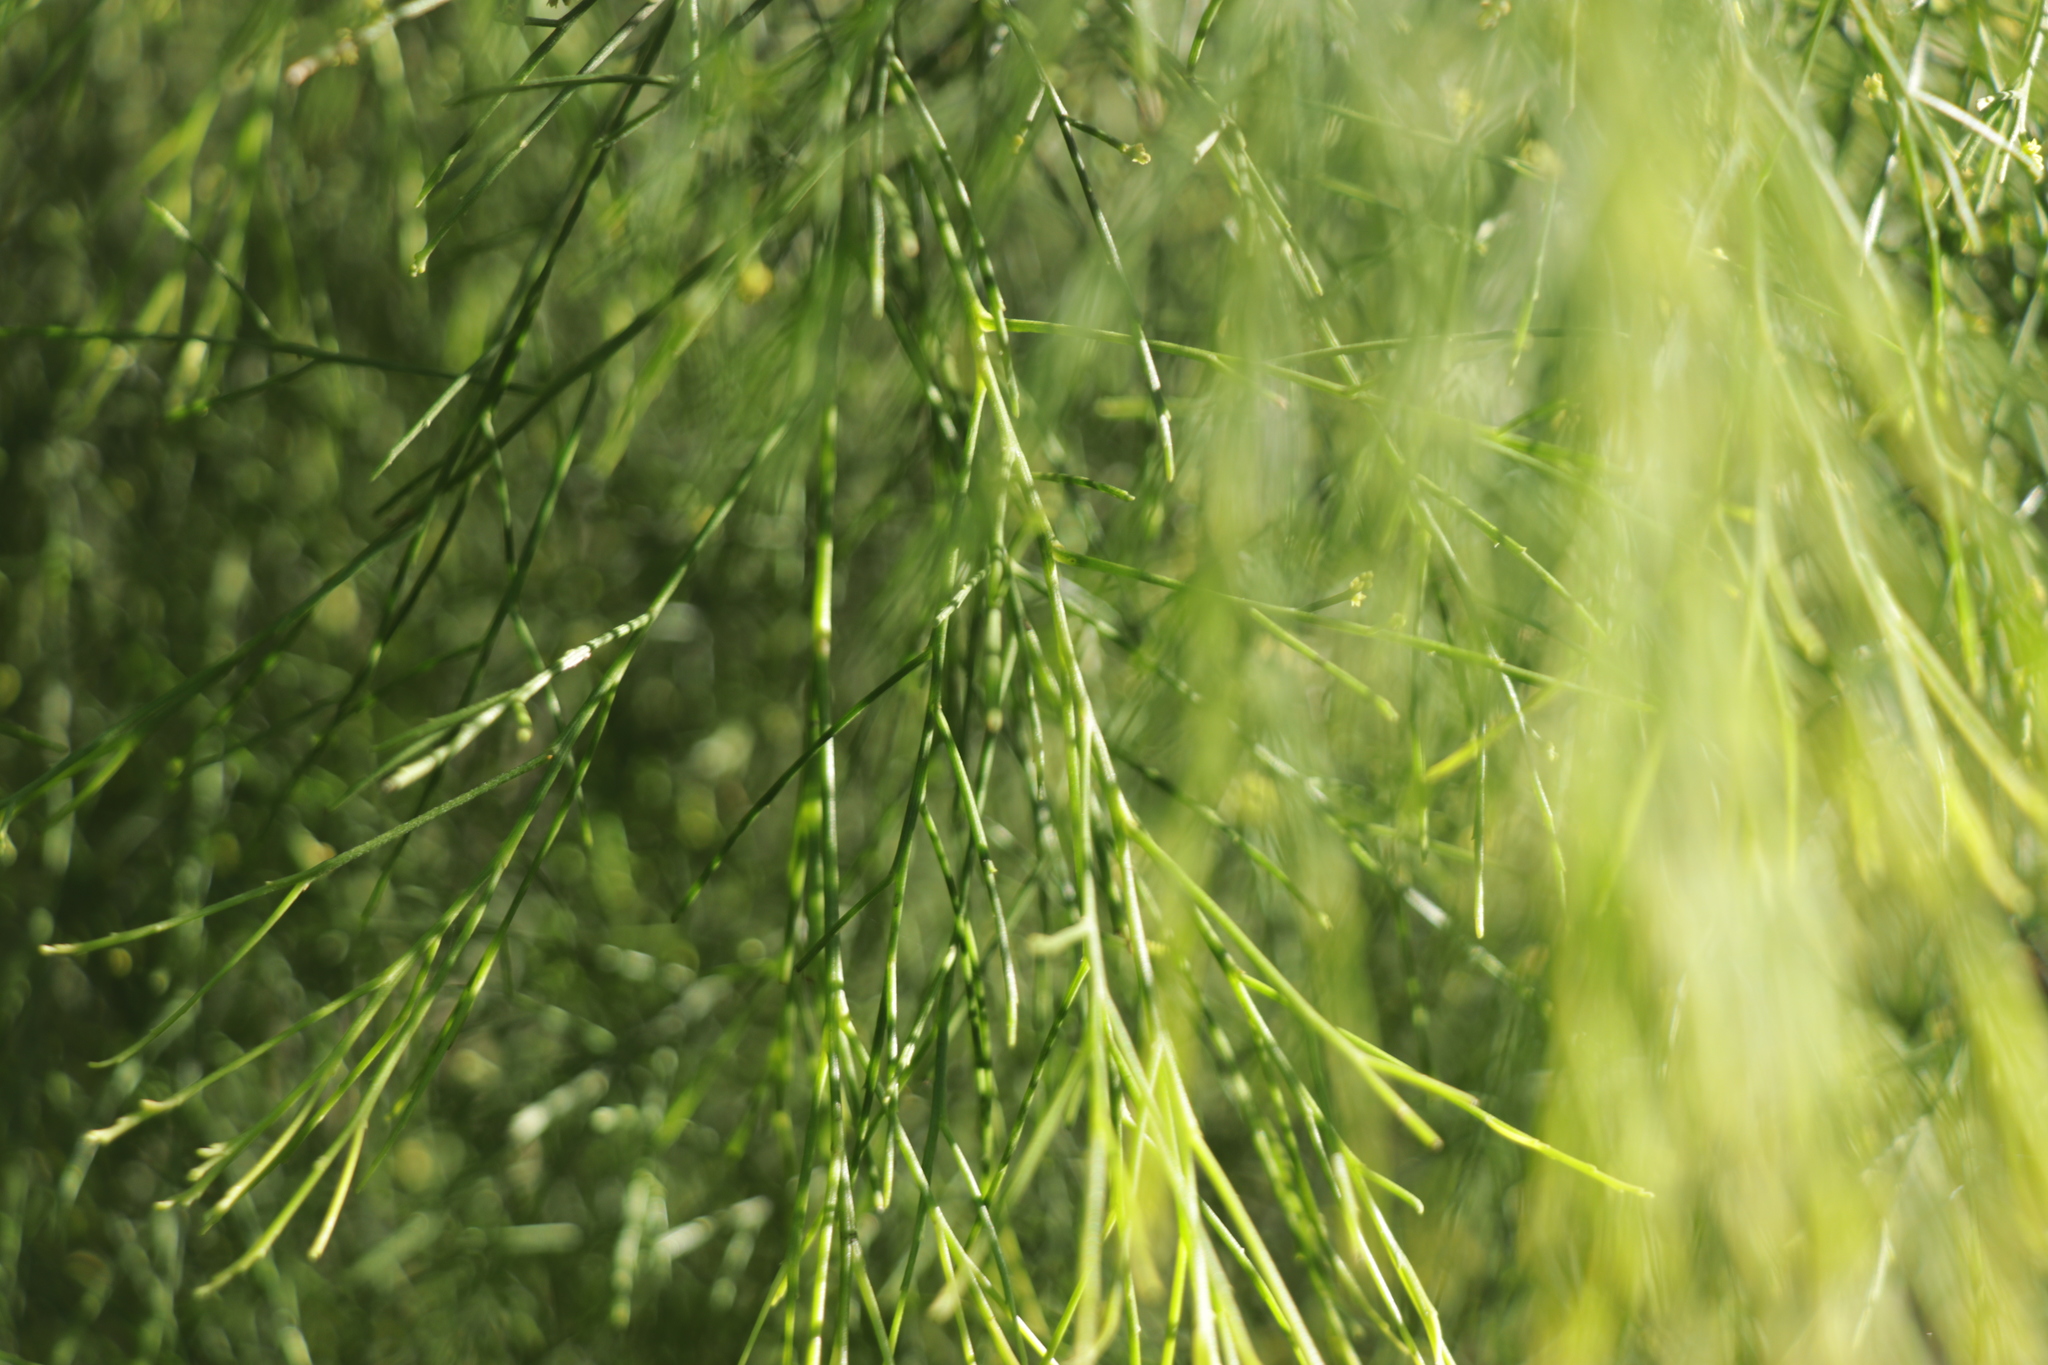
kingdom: Plantae
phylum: Tracheophyta
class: Magnoliopsida
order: Santalales
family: Santalaceae
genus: Exocarpos
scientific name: Exocarpos cupressiformis
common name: Cherry ballart
